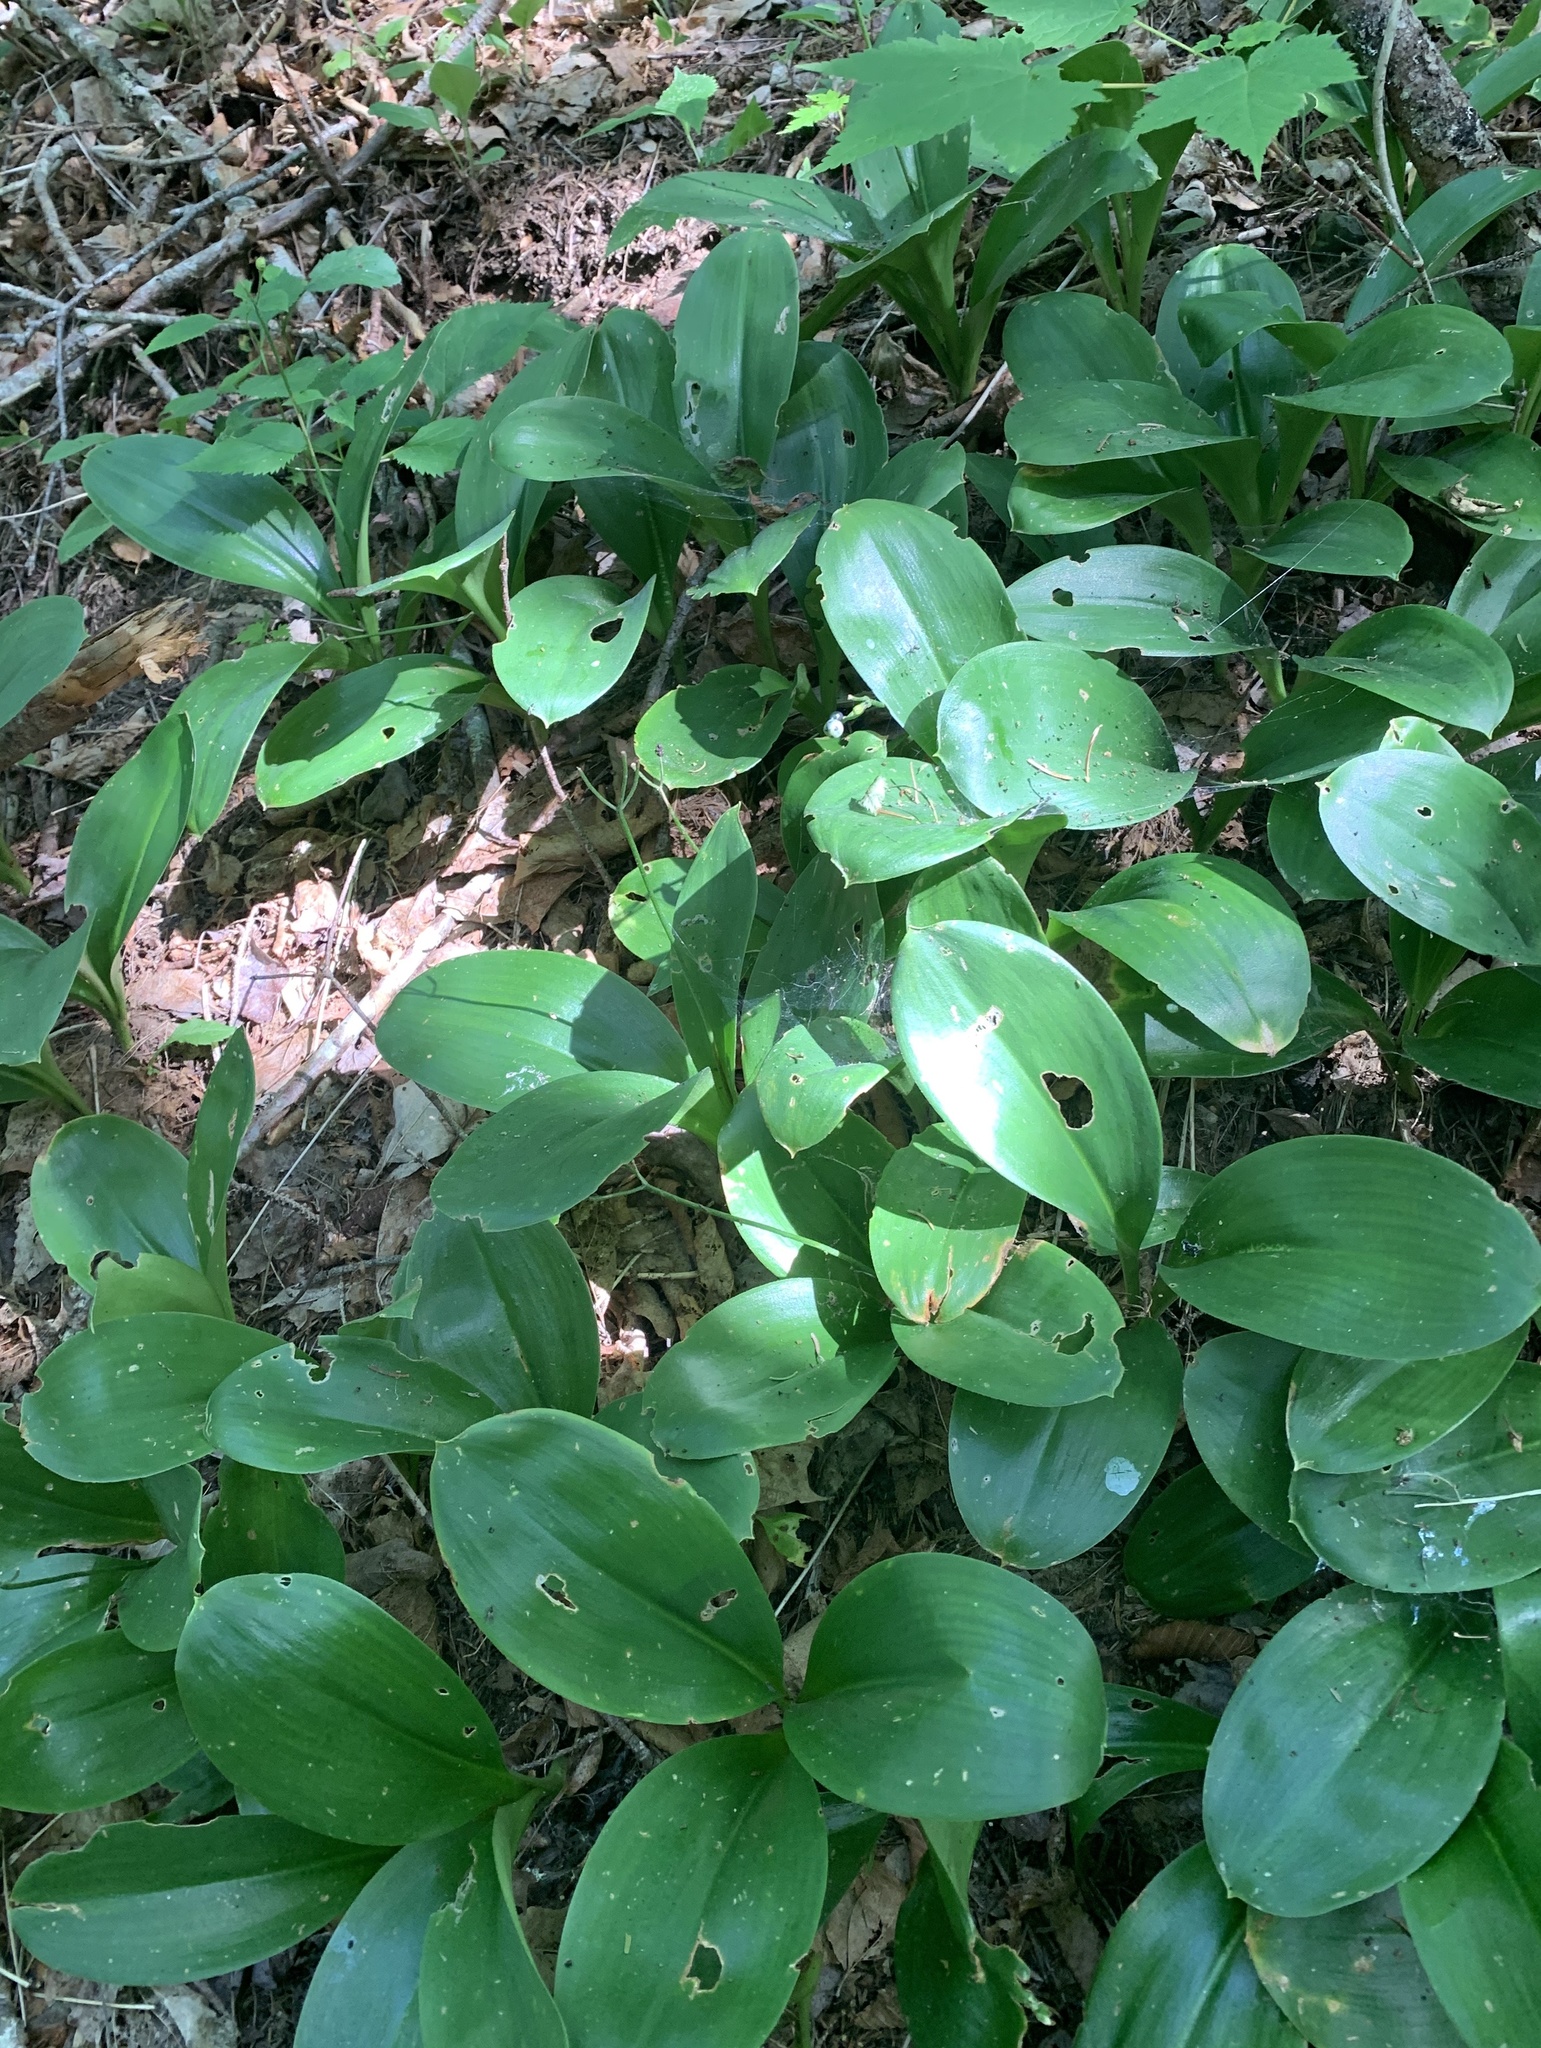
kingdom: Plantae
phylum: Tracheophyta
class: Liliopsida
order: Liliales
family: Liliaceae
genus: Clintonia
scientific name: Clintonia borealis
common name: Yellow clintonia
